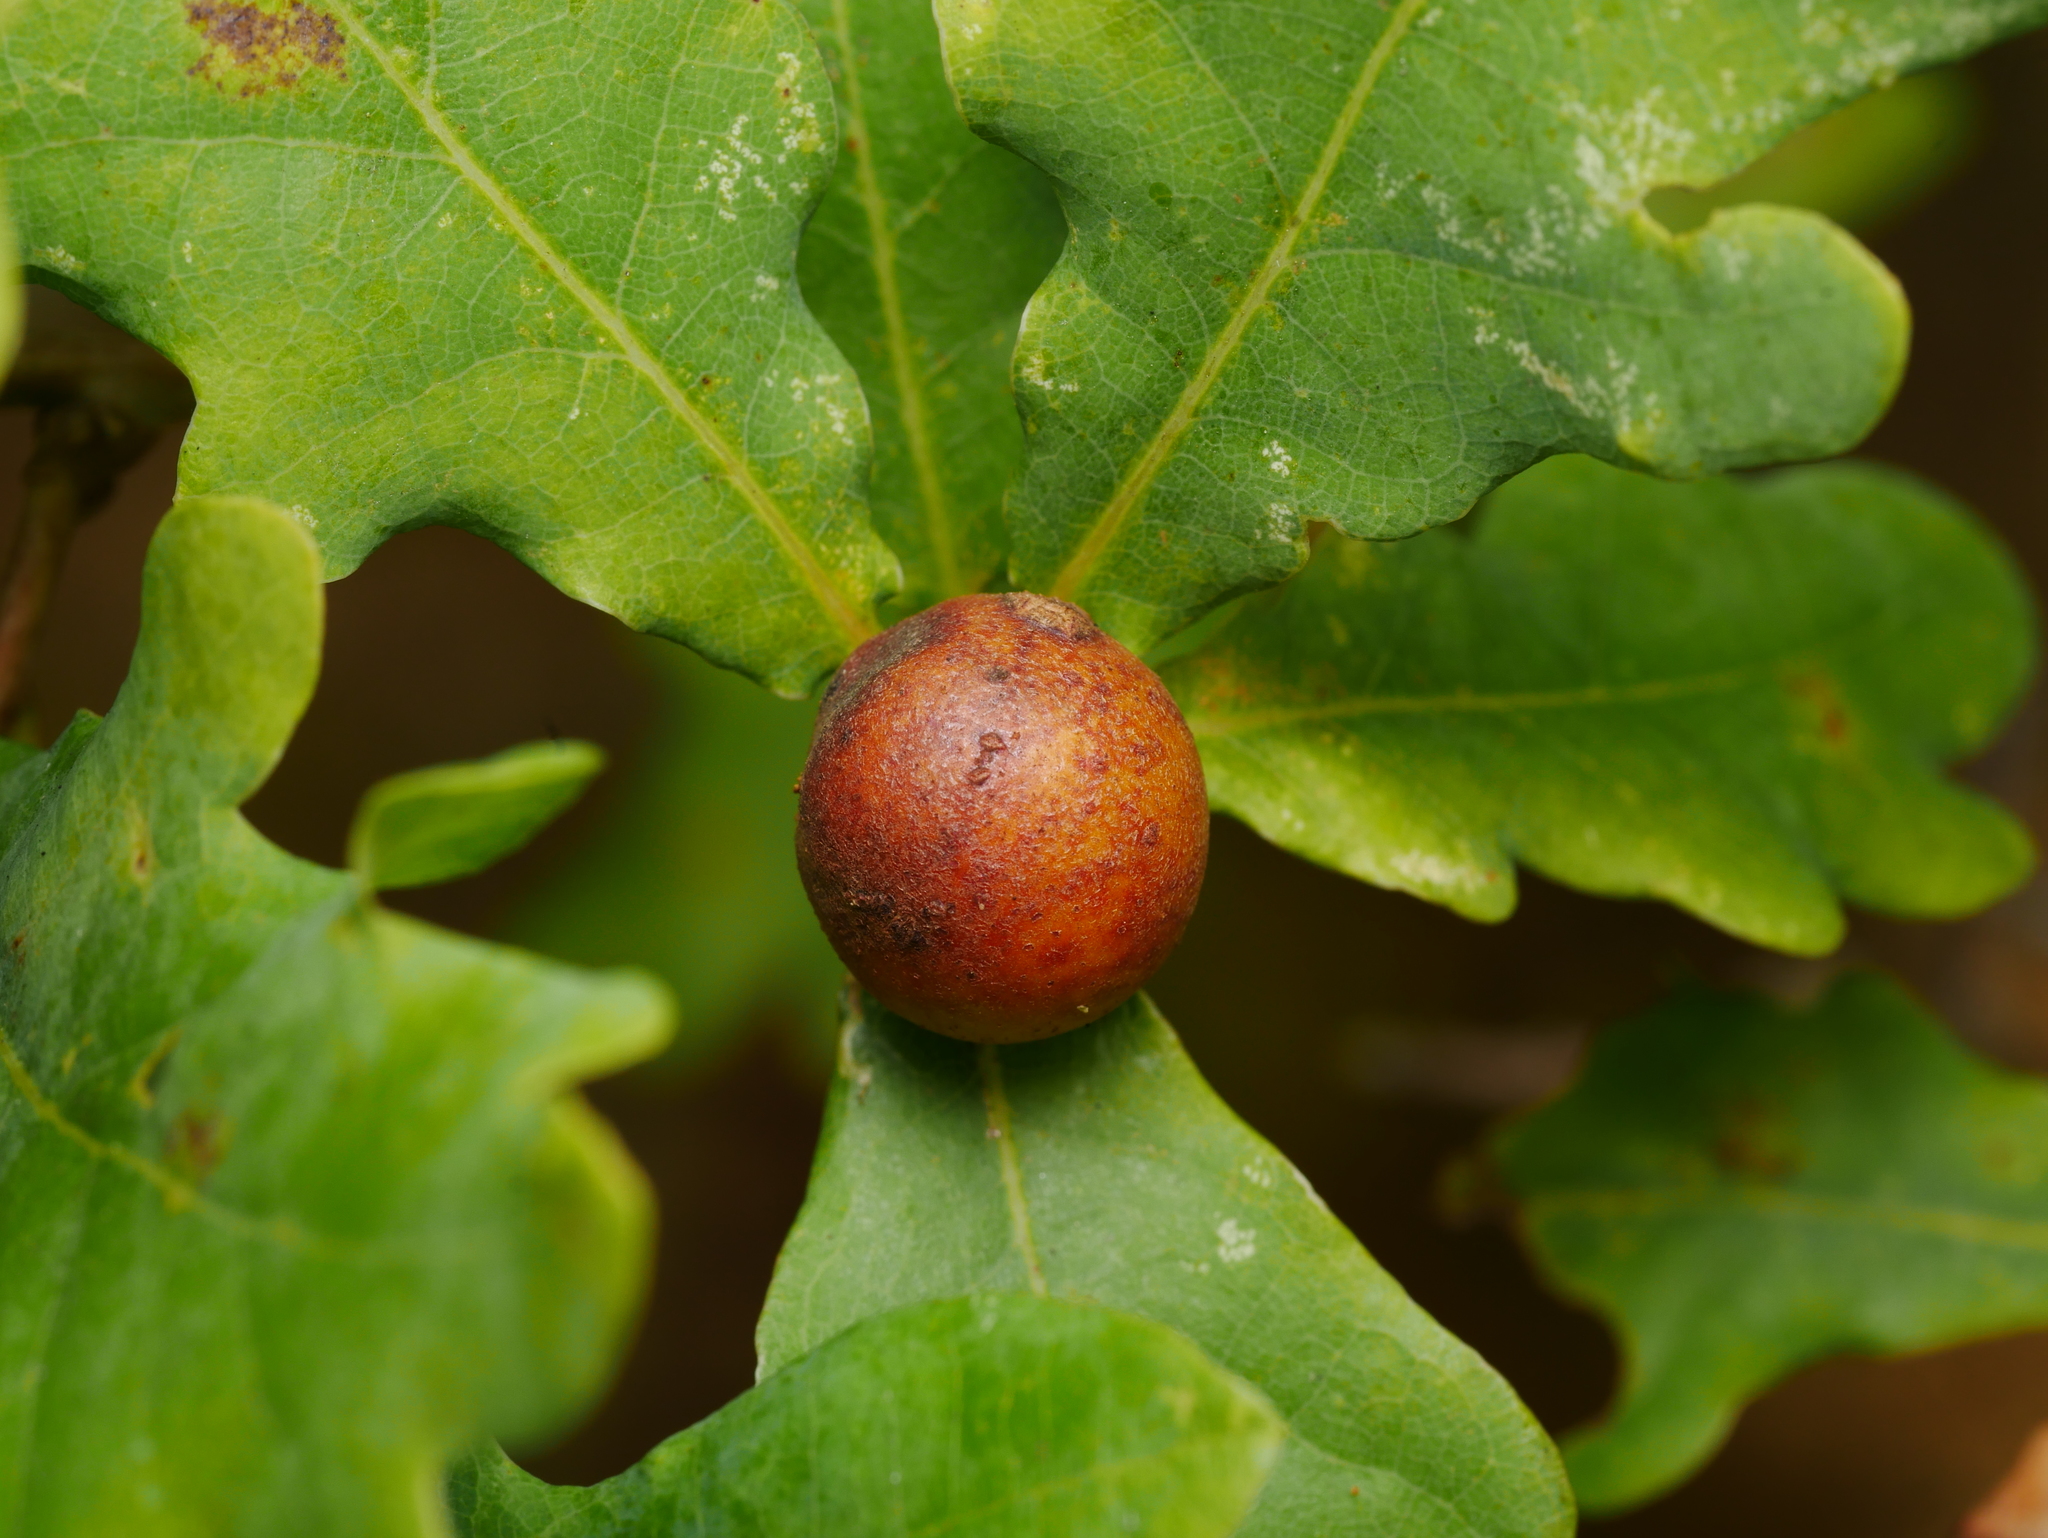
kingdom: Animalia
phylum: Arthropoda
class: Insecta
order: Hymenoptera
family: Cynipidae
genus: Andricus
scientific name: Andricus kollari
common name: Marble gall
